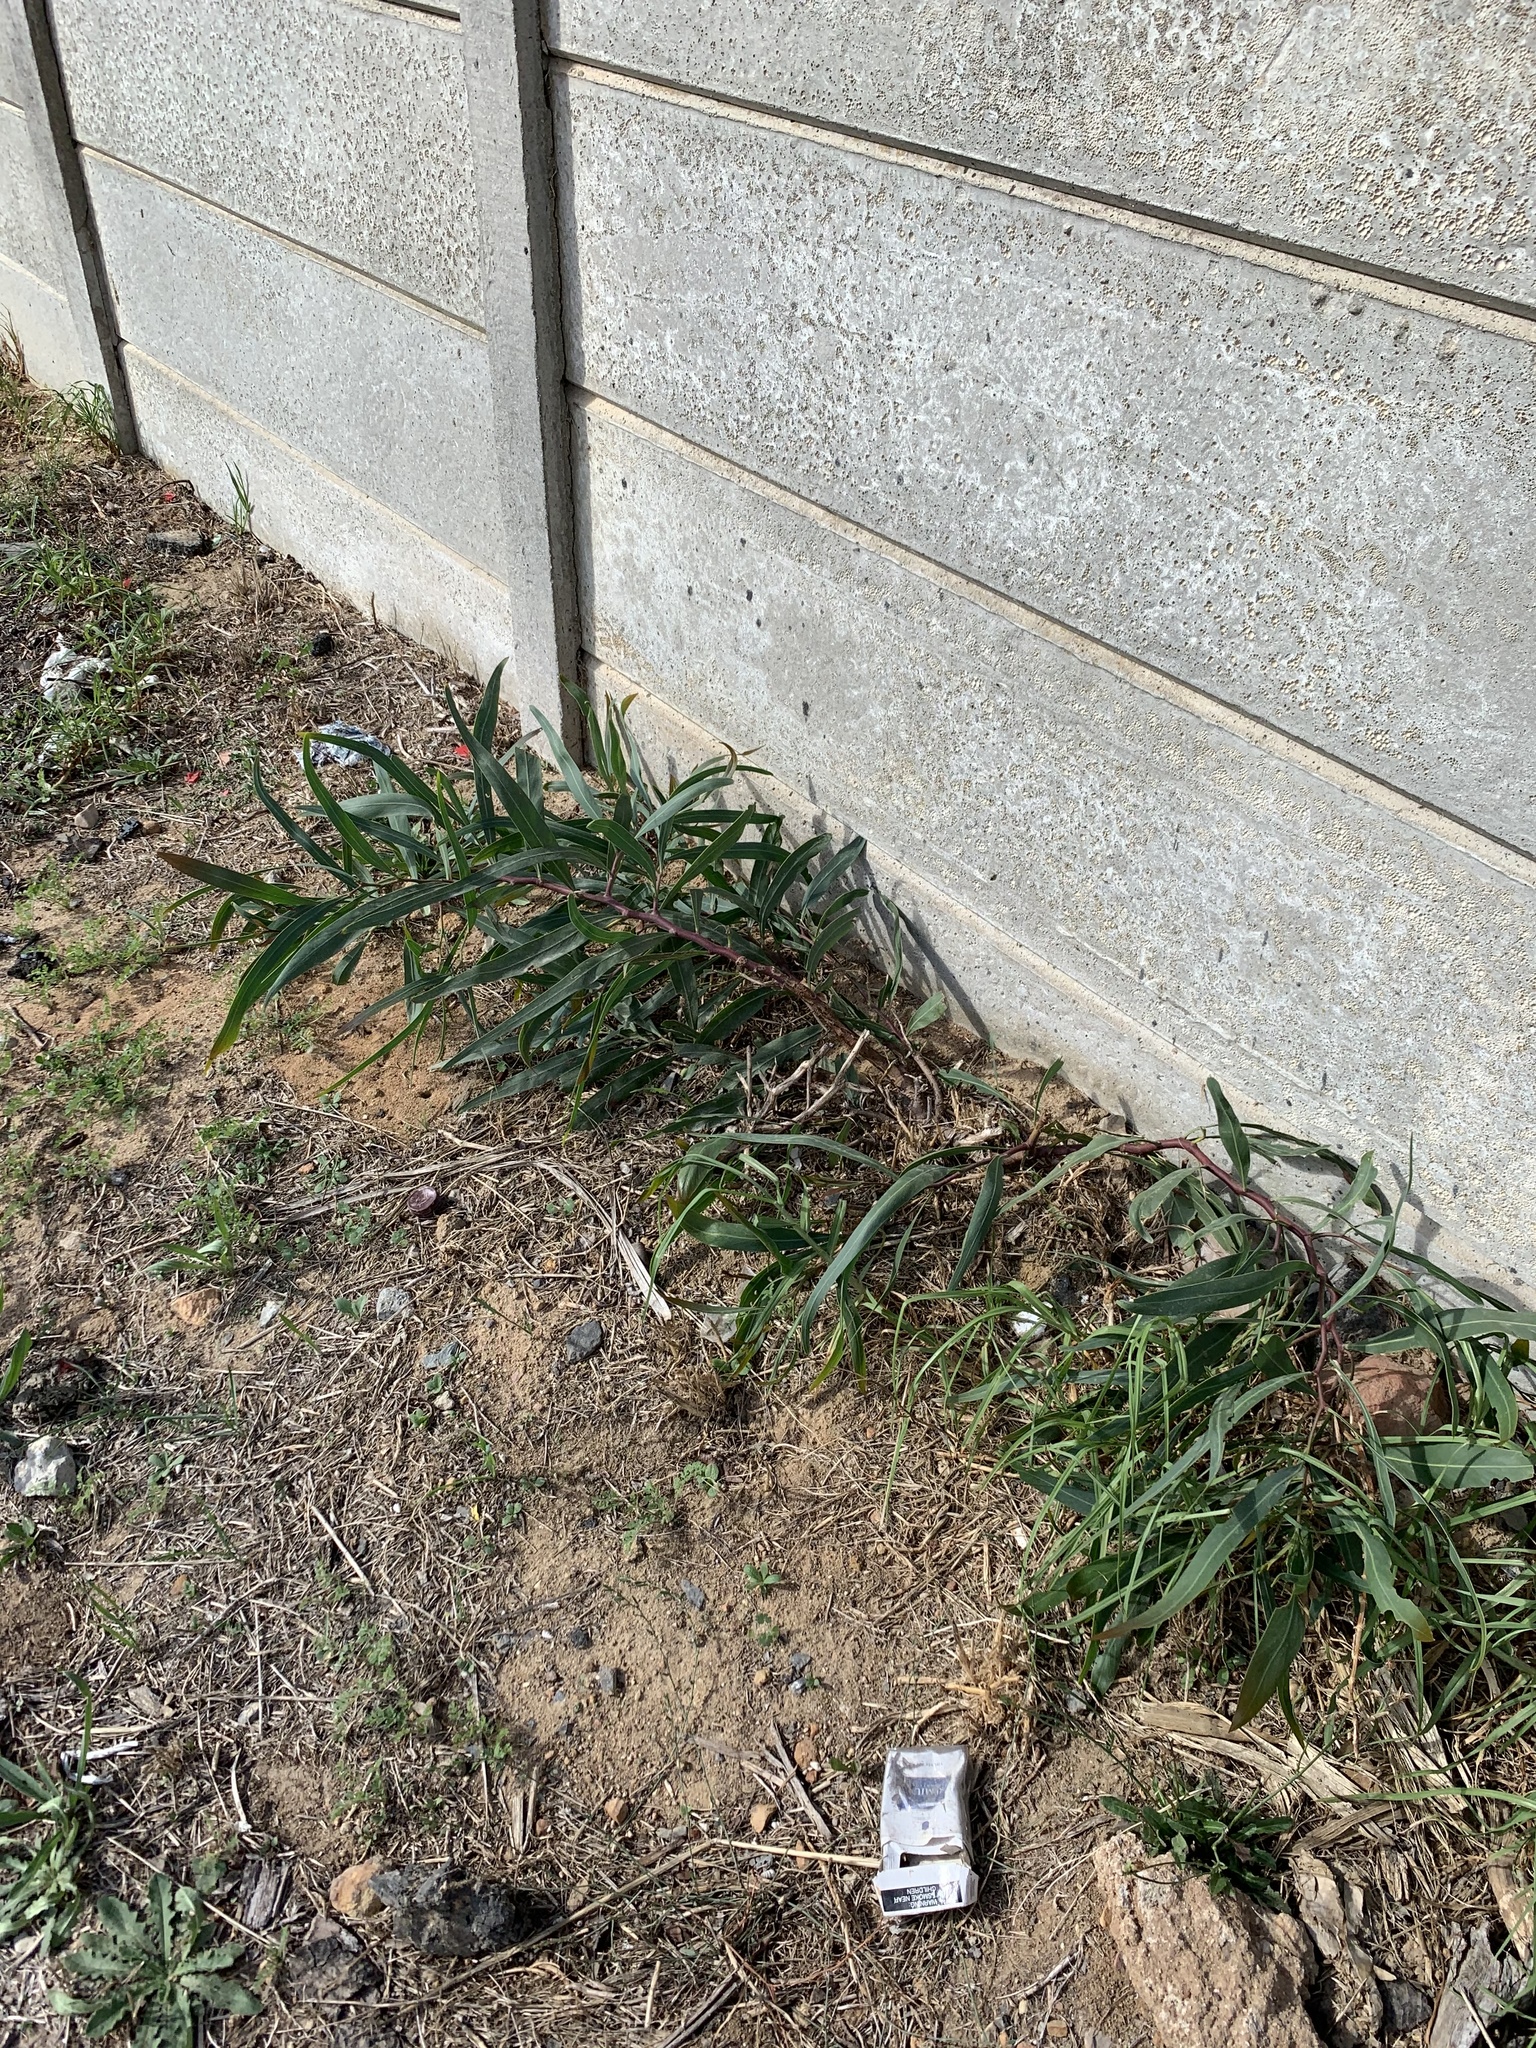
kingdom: Plantae
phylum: Tracheophyta
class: Magnoliopsida
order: Fabales
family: Fabaceae
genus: Acacia
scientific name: Acacia saligna
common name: Orange wattle
